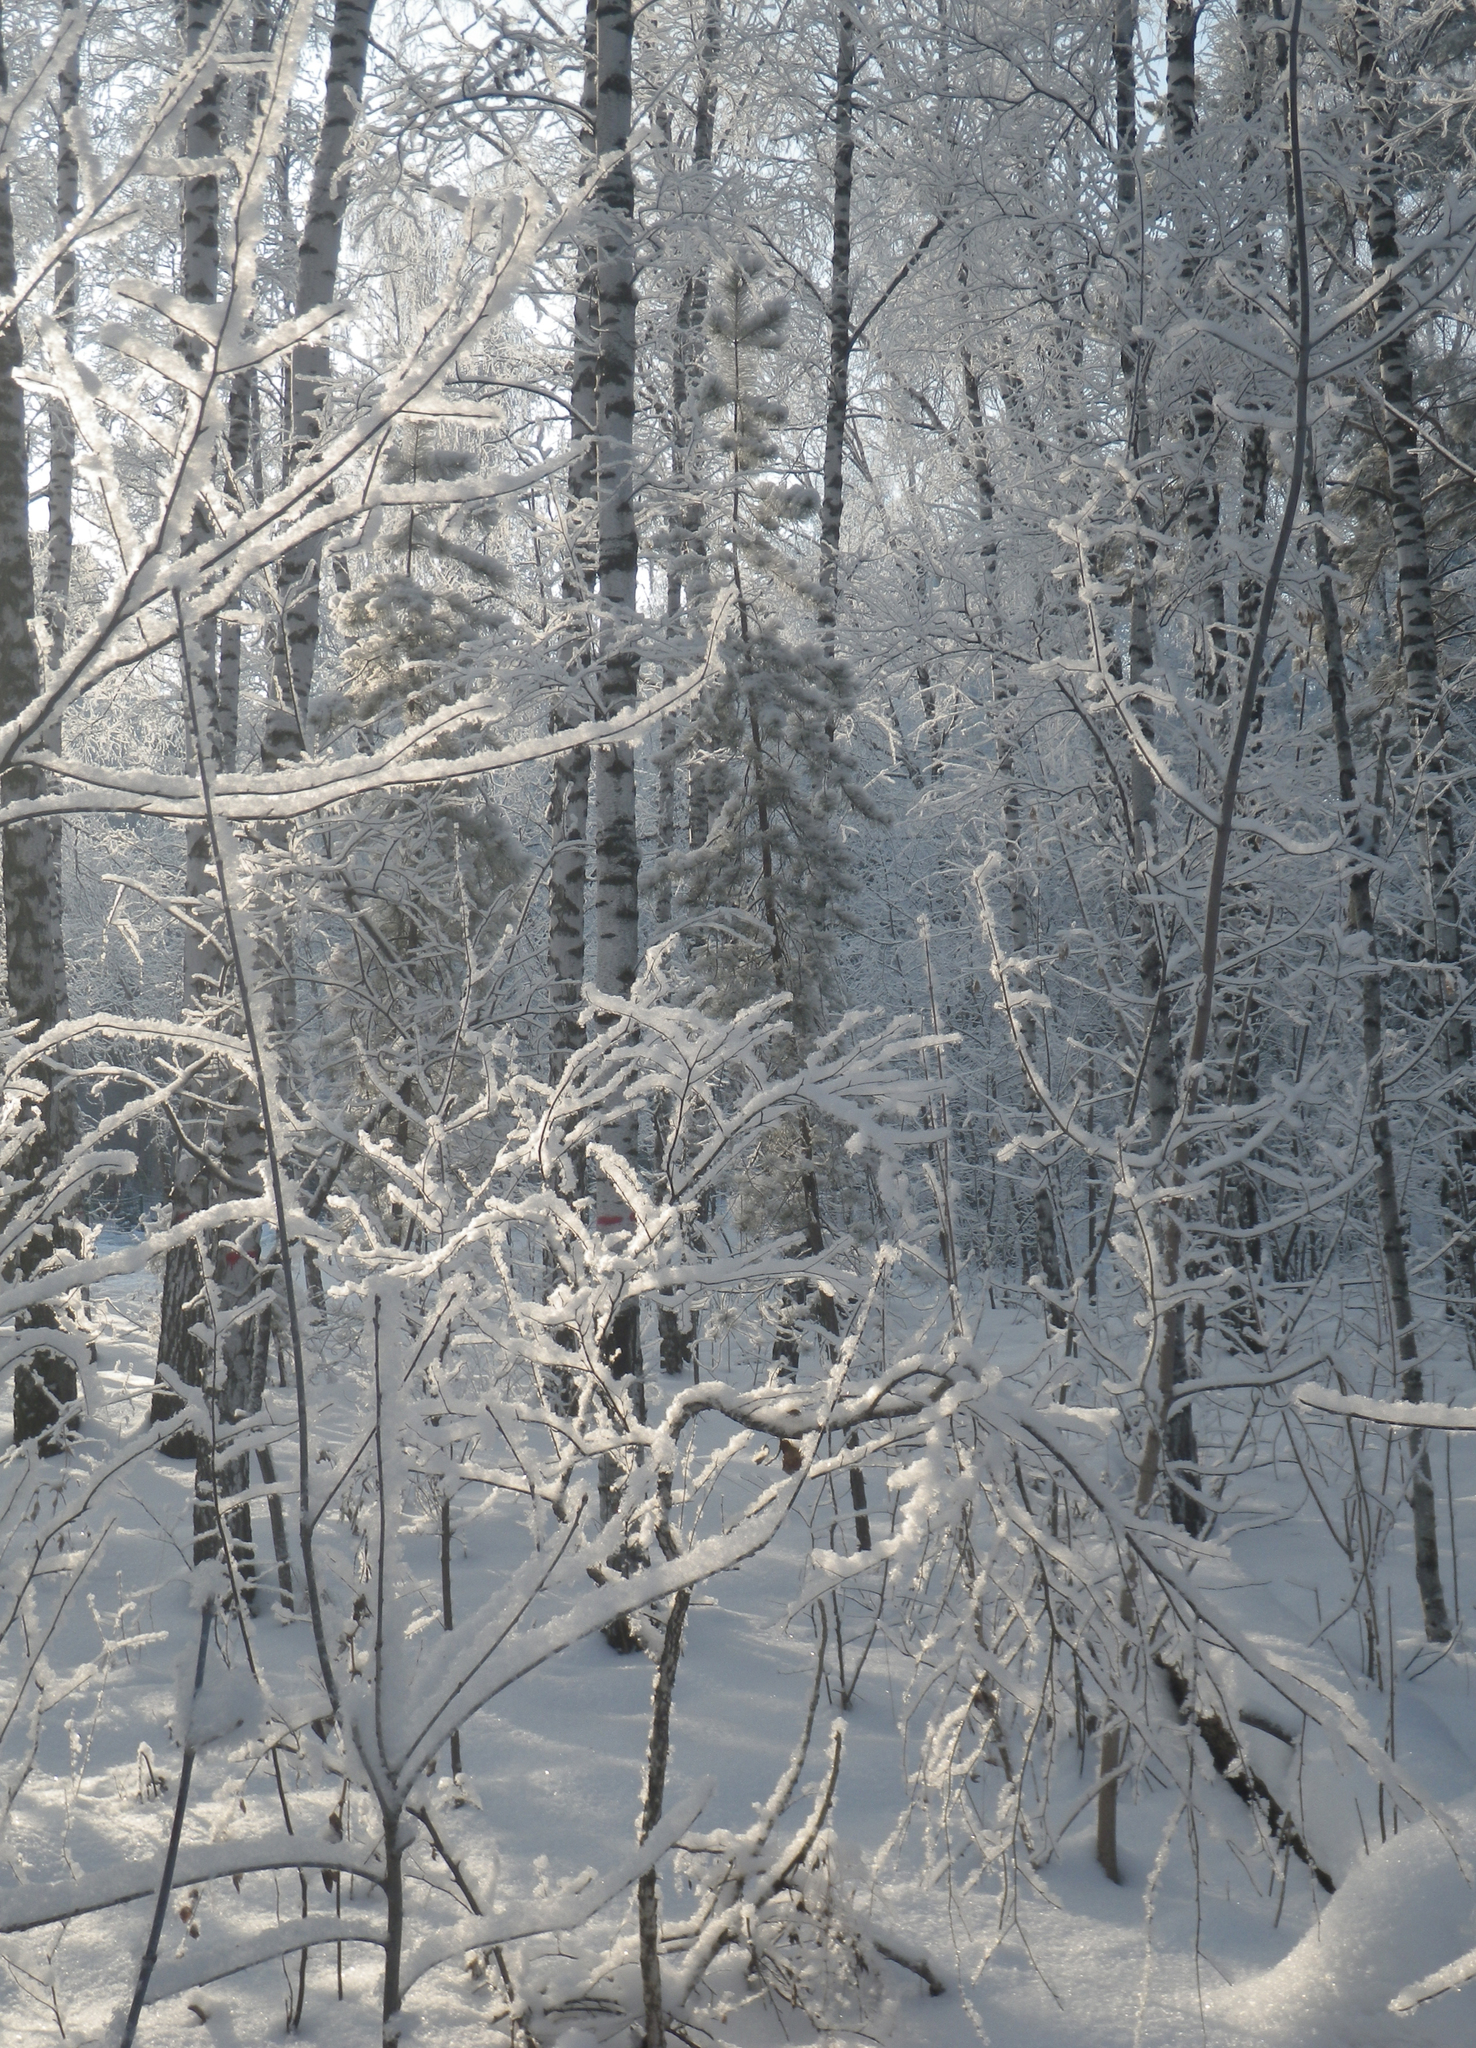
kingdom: Plantae
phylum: Tracheophyta
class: Magnoliopsida
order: Fagales
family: Betulaceae
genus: Betula
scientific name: Betula pendula
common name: Silver birch
